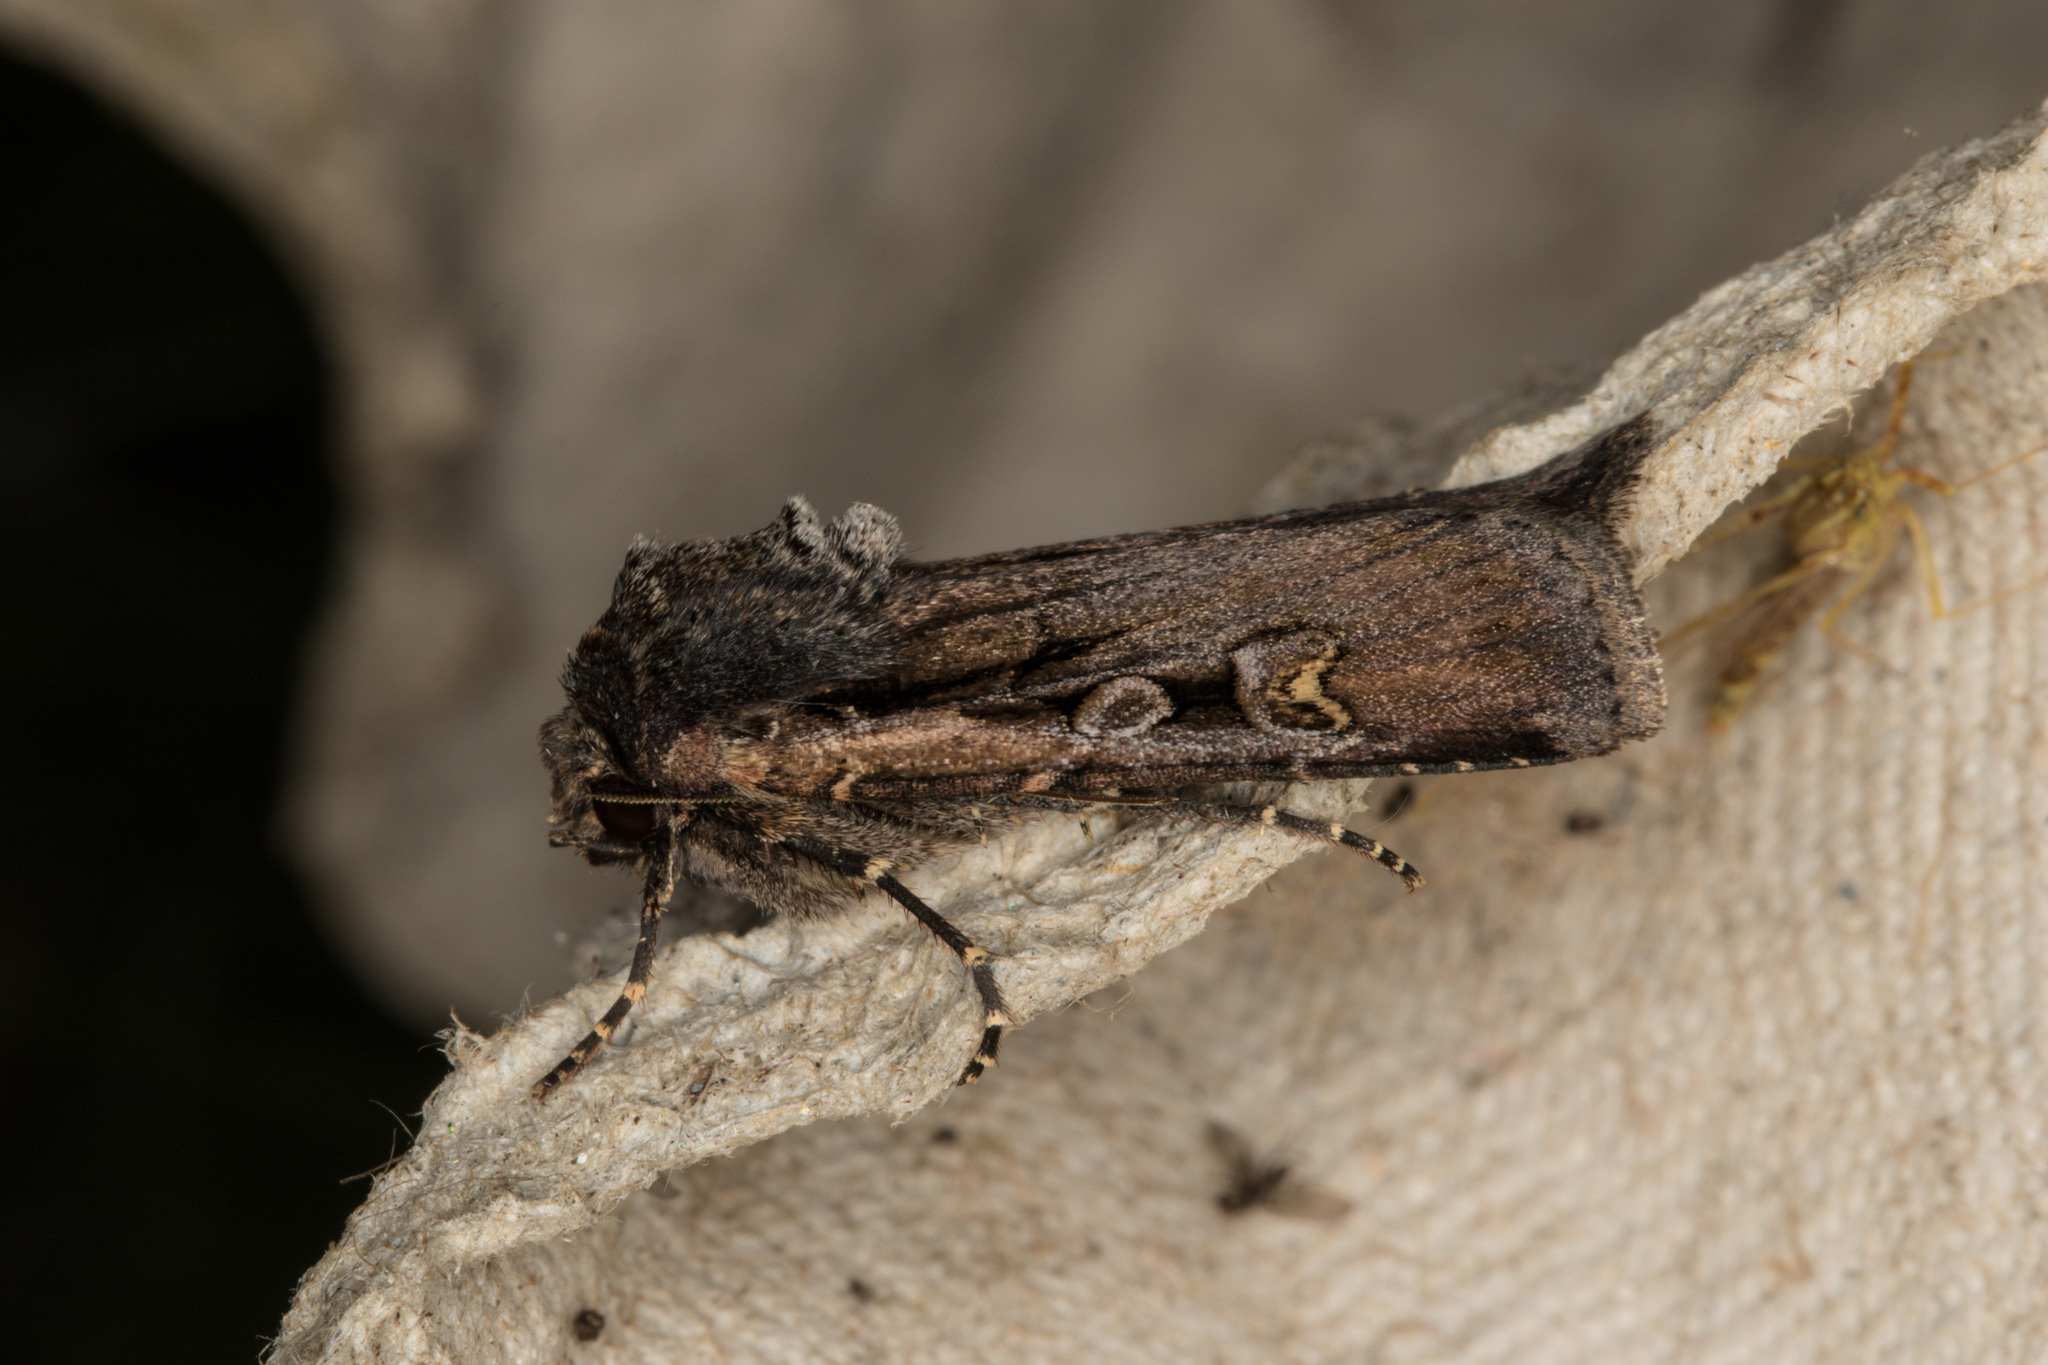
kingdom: Animalia
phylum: Arthropoda
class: Insecta
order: Lepidoptera
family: Noctuidae
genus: Euxoa
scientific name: Euxoa obelisca
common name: Square-spot dart
